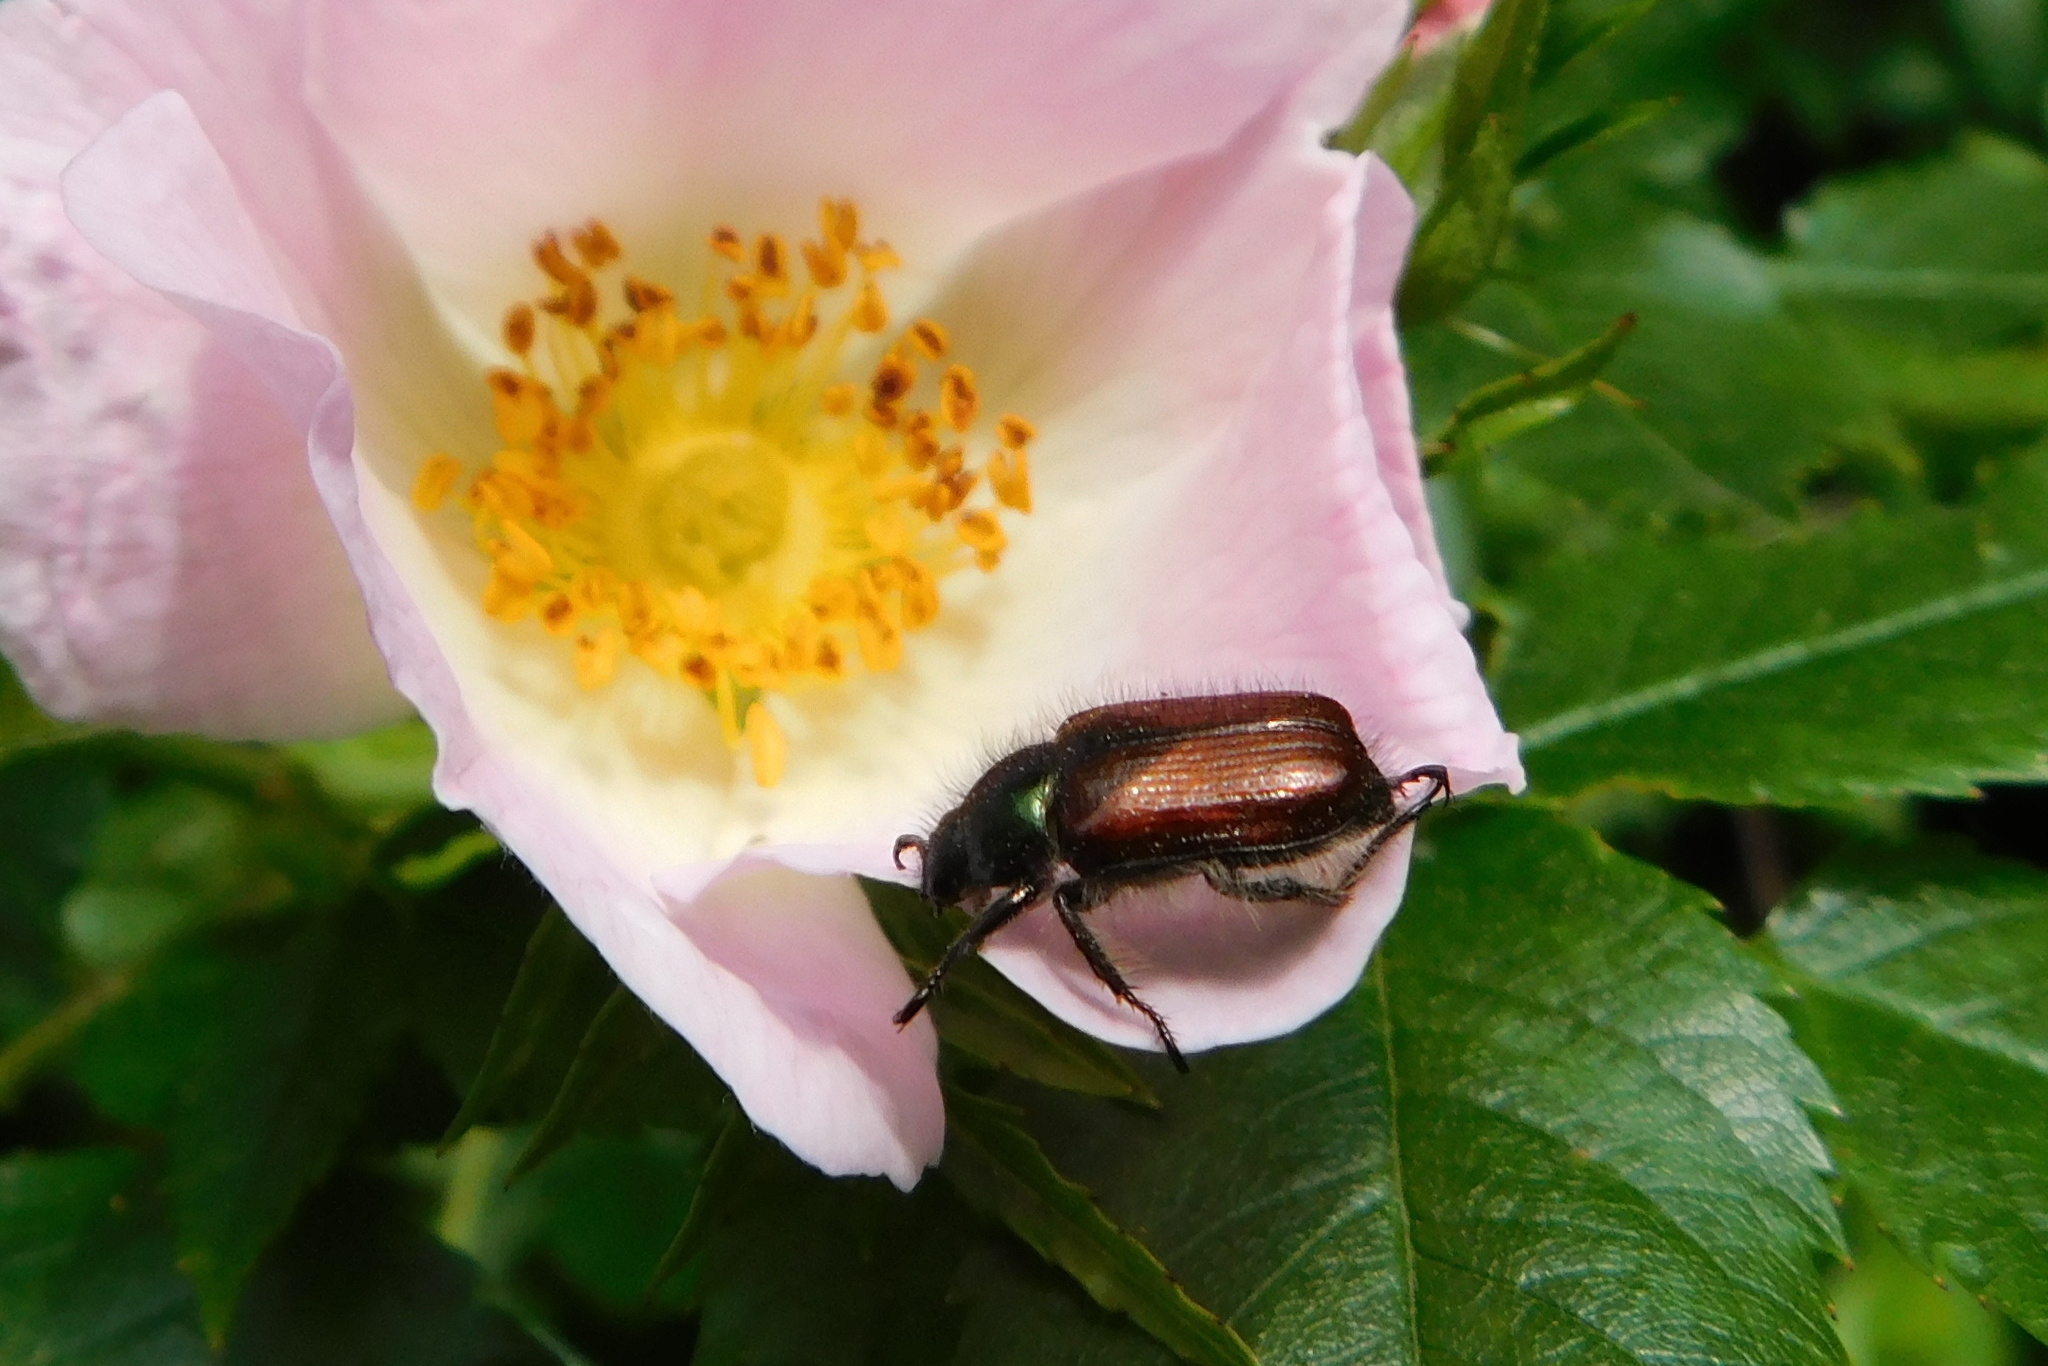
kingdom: Animalia
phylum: Arthropoda
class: Insecta
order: Coleoptera
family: Scarabaeidae
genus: Phyllopertha
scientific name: Phyllopertha horticola
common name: Garden chafer
